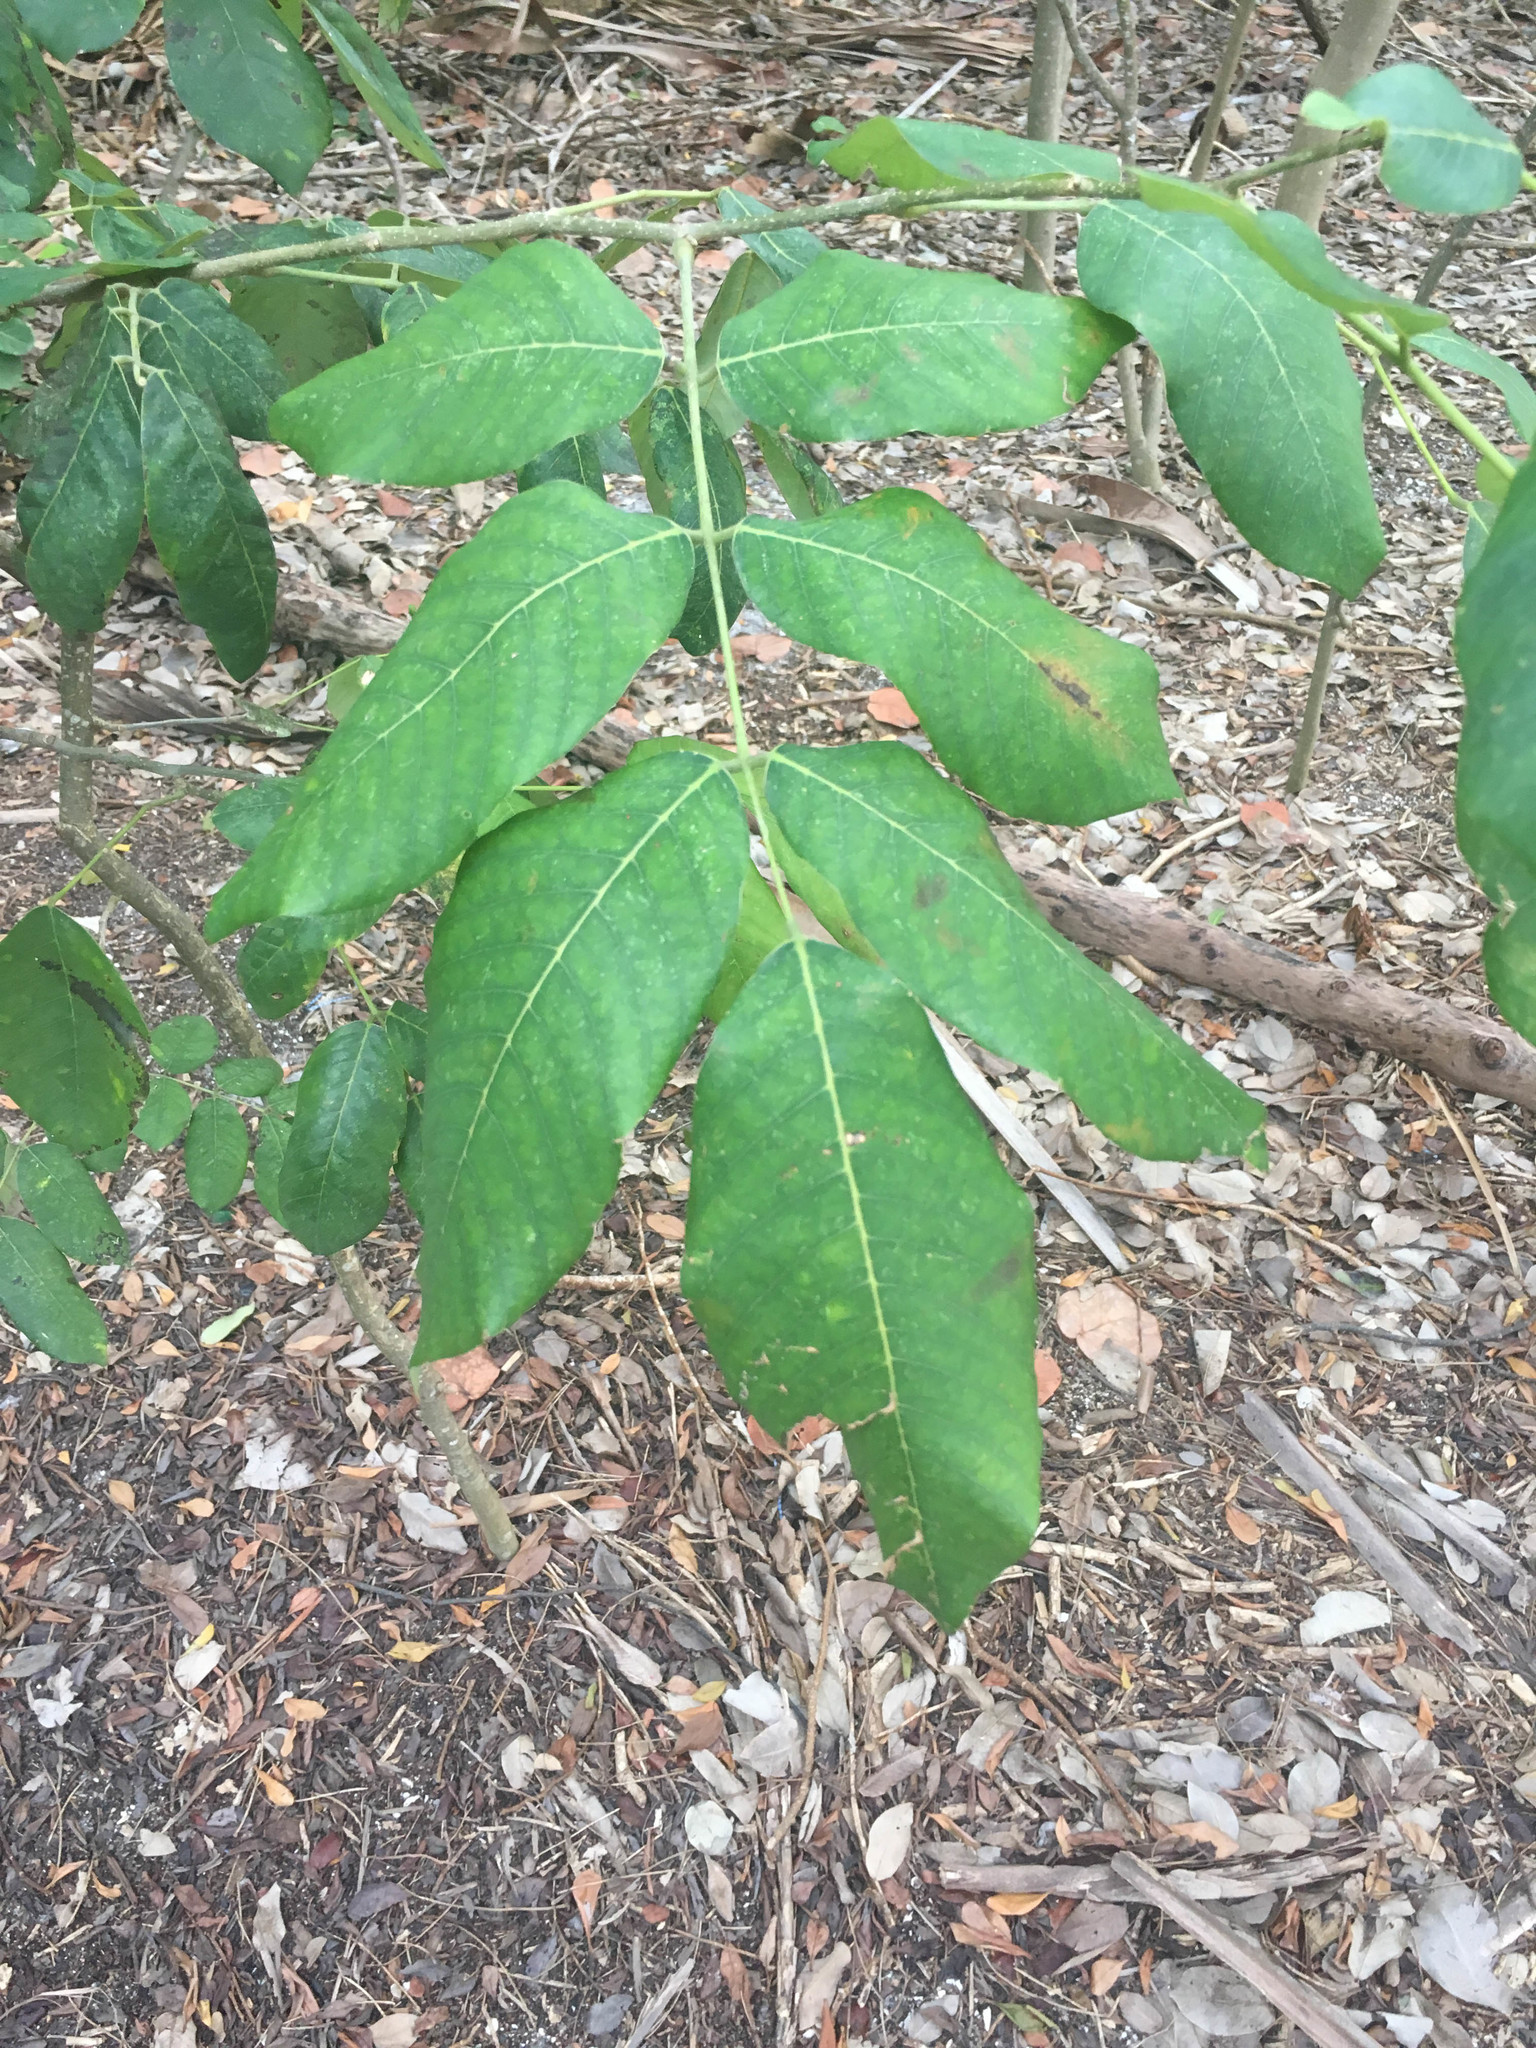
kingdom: Plantae
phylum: Tracheophyta
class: Magnoliopsida
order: Fabales
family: Fabaceae
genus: Piscidia
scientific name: Piscidia piscipula
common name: Florida fishpoison tree
